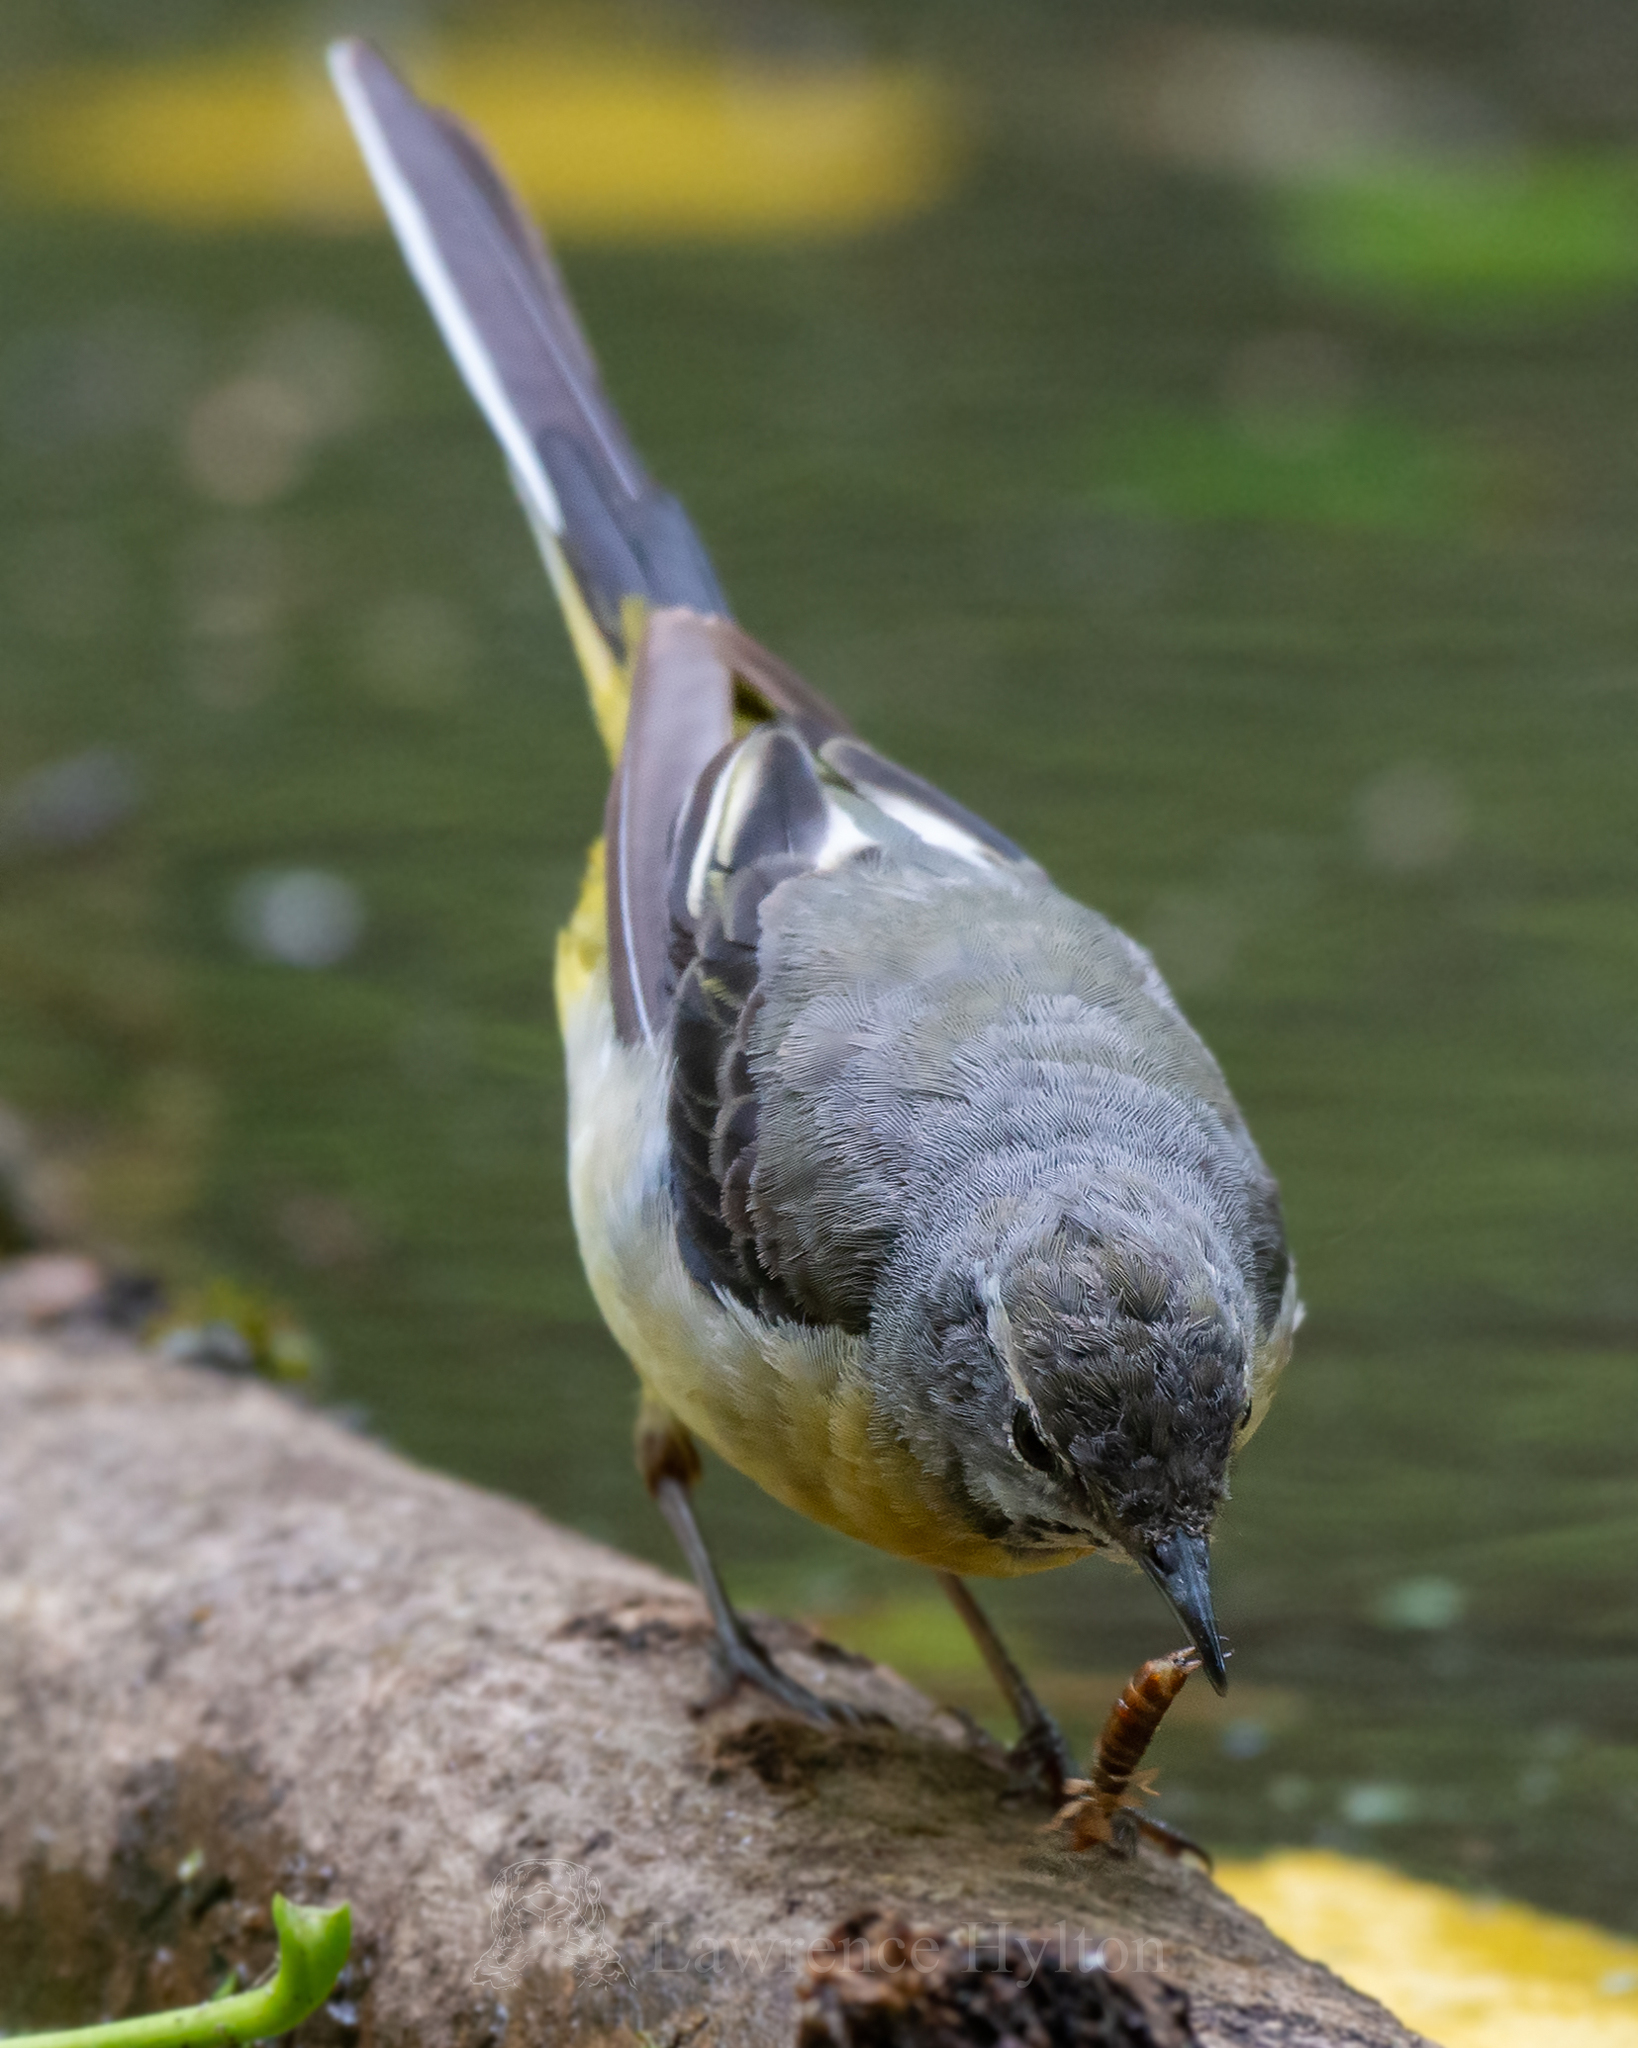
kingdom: Animalia
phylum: Chordata
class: Aves
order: Passeriformes
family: Motacillidae
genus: Motacilla
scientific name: Motacilla cinerea
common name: Grey wagtail
